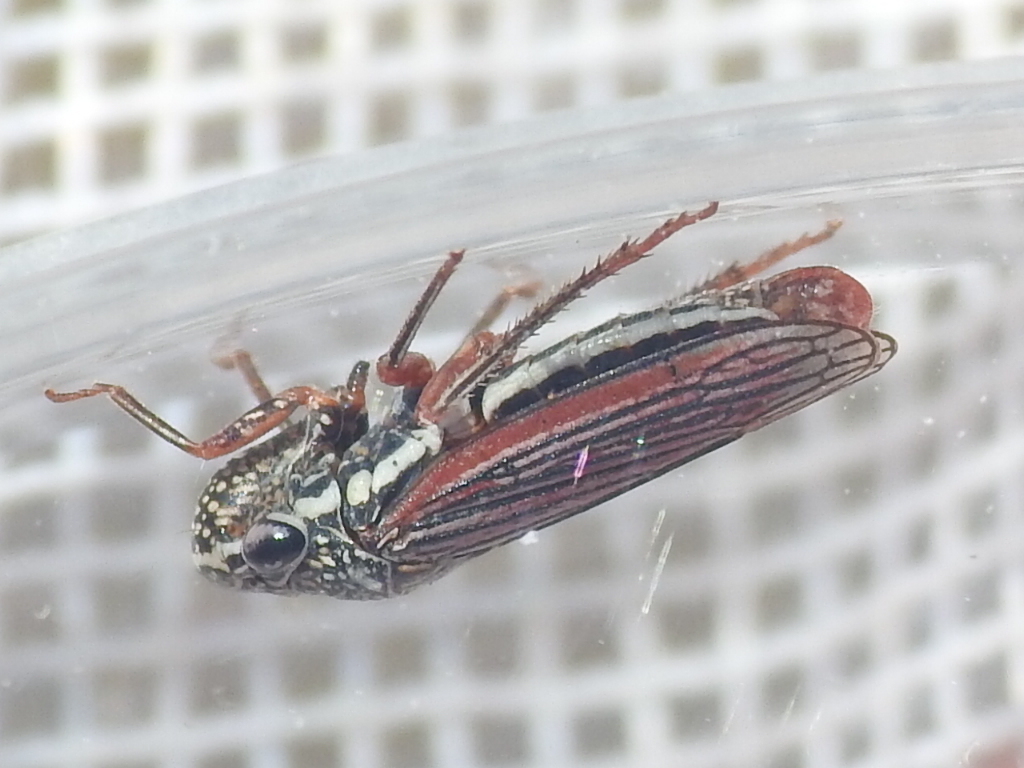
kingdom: Animalia
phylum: Arthropoda
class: Insecta
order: Hemiptera
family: Cicadellidae
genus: Cuerna
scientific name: Cuerna costalis
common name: Lateral-lined sharpshooter
